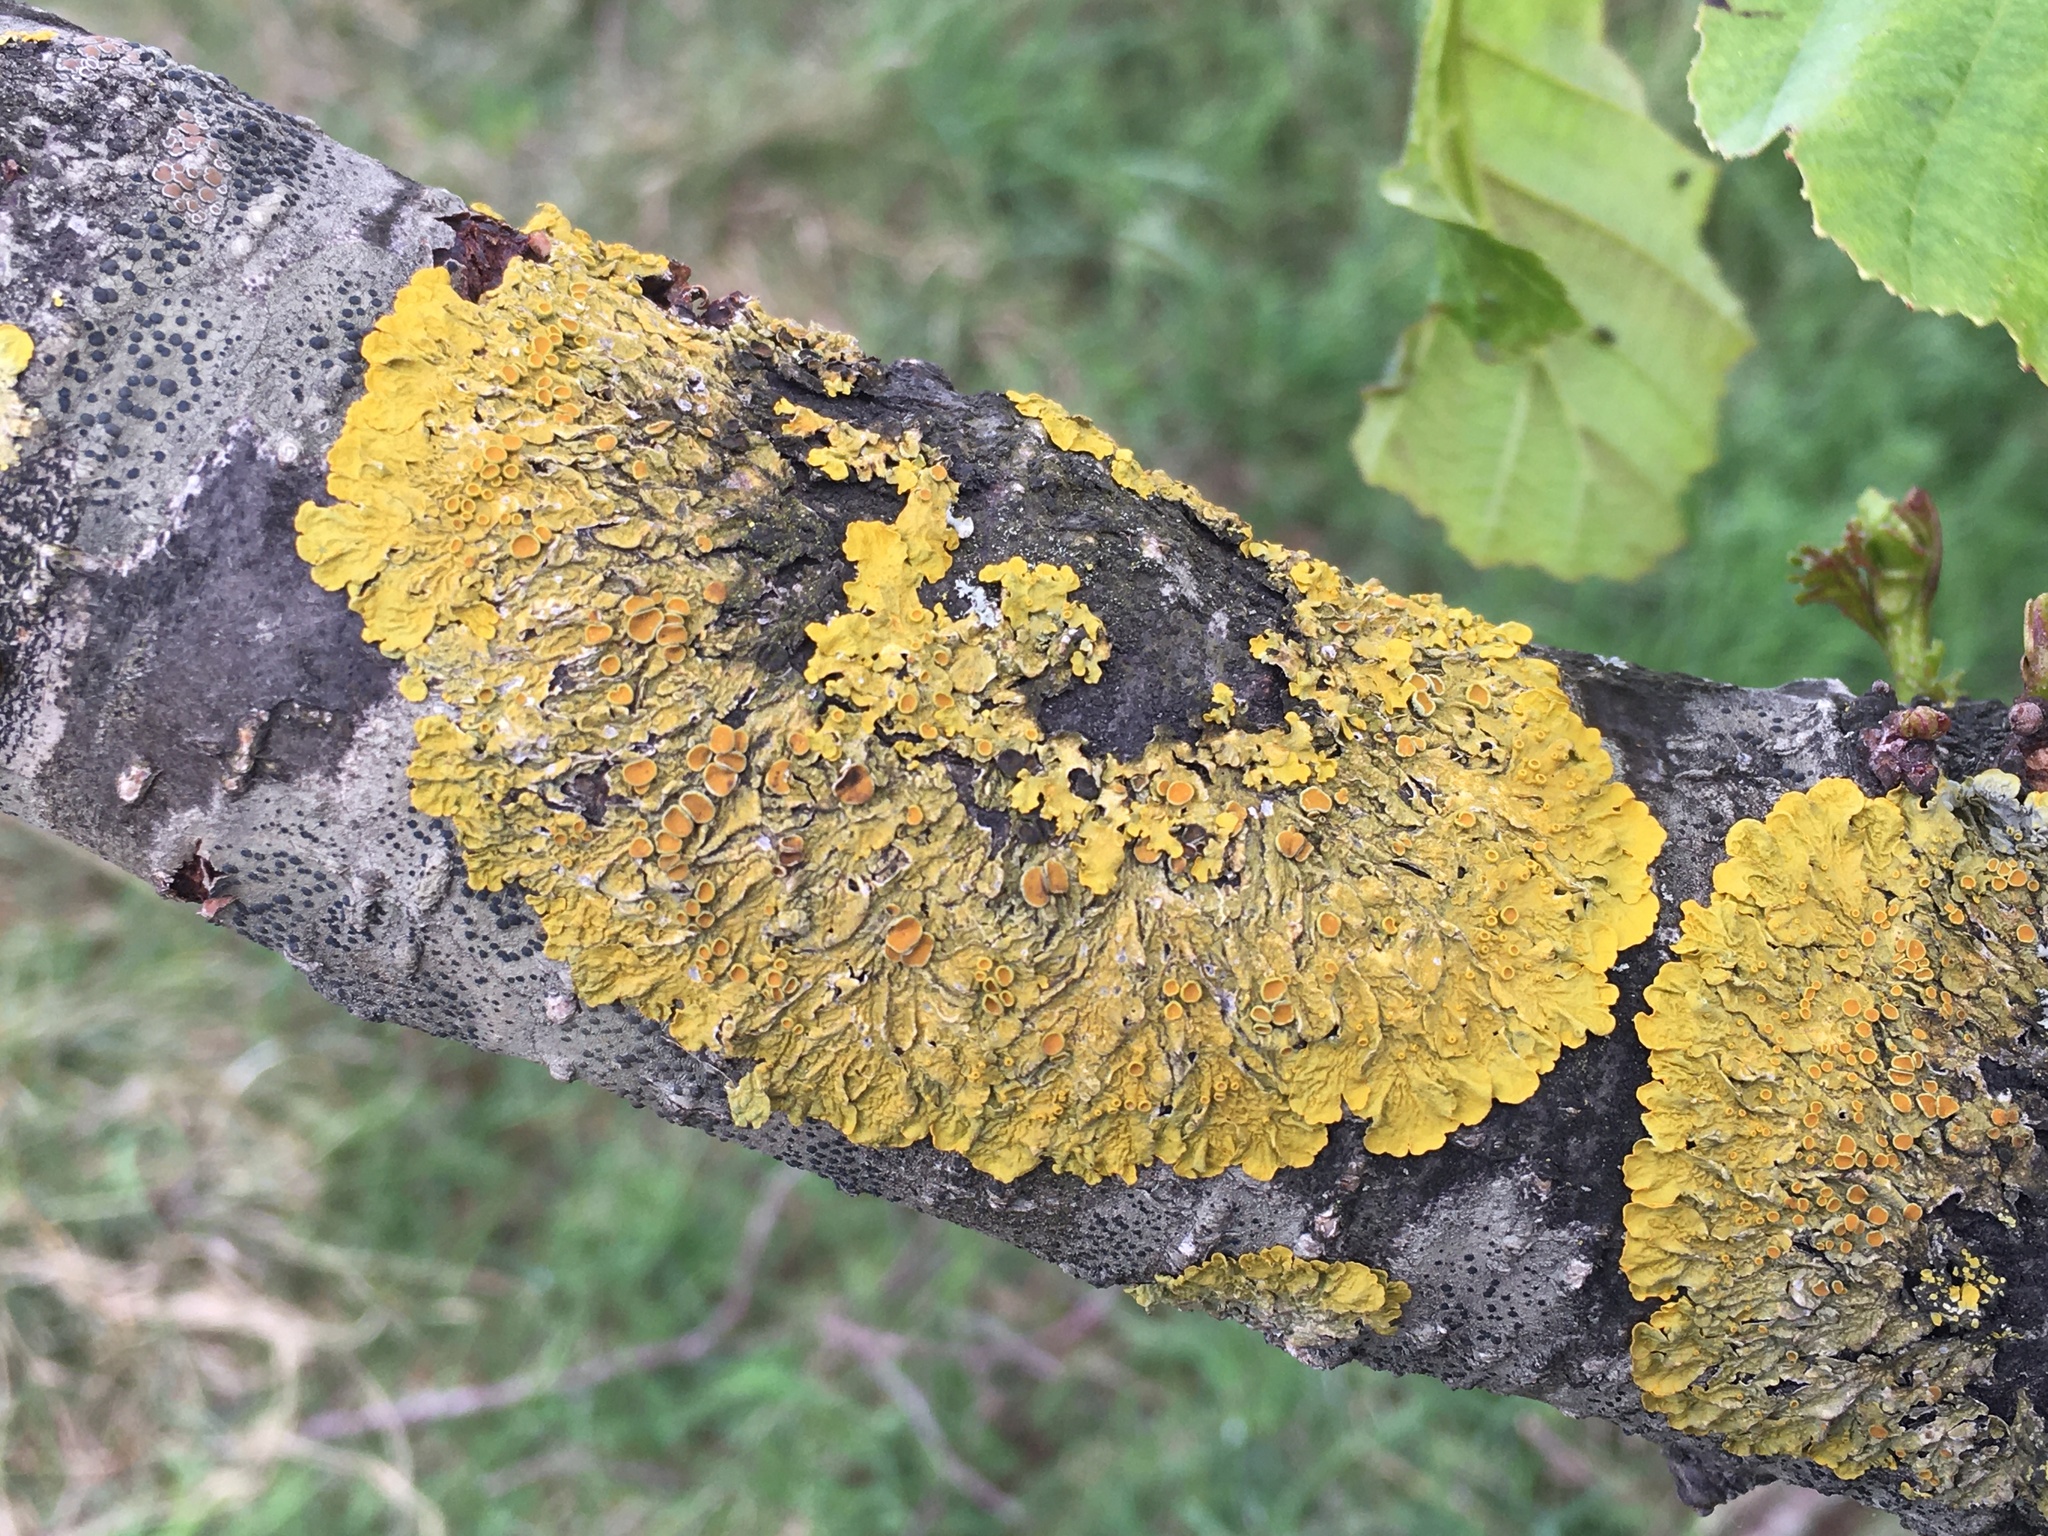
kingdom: Fungi
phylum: Ascomycota
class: Lecanoromycetes
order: Teloschistales
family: Teloschistaceae
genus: Xanthoria
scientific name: Xanthoria parietina
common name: Common orange lichen
